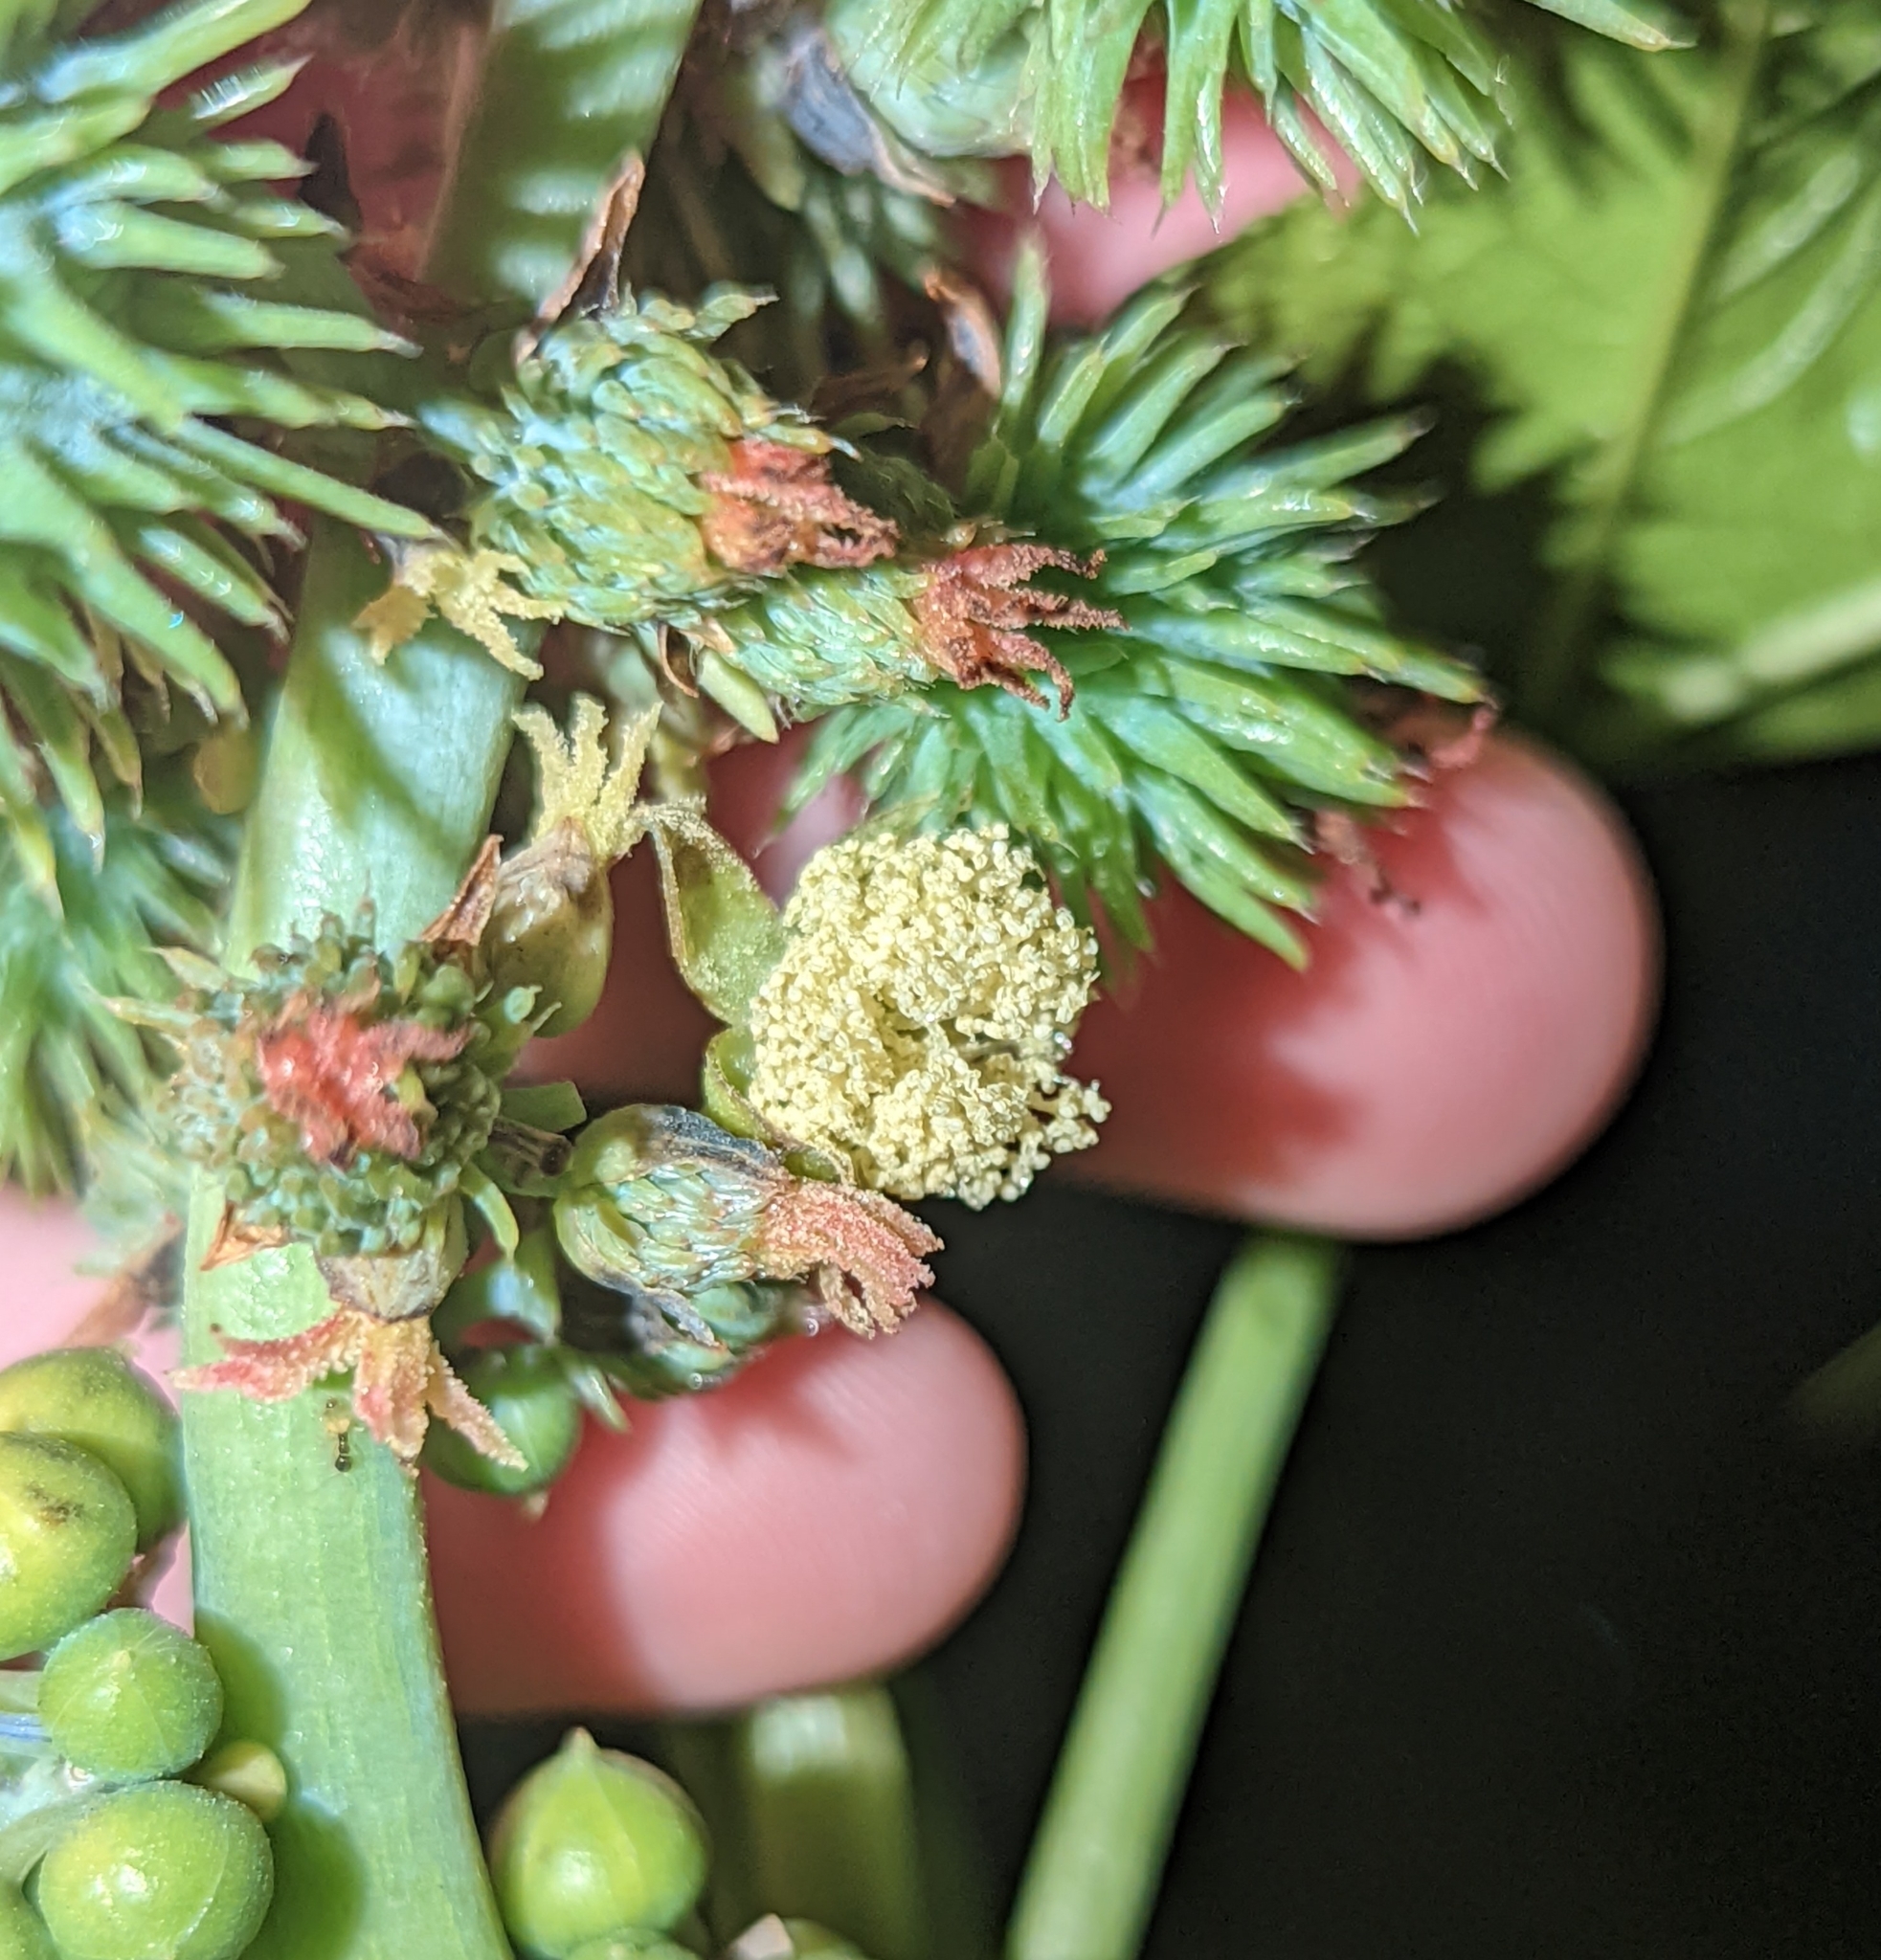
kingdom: Plantae
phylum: Tracheophyta
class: Magnoliopsida
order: Malpighiales
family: Euphorbiaceae
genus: Ricinus
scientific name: Ricinus communis
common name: Castor-oil-plant
